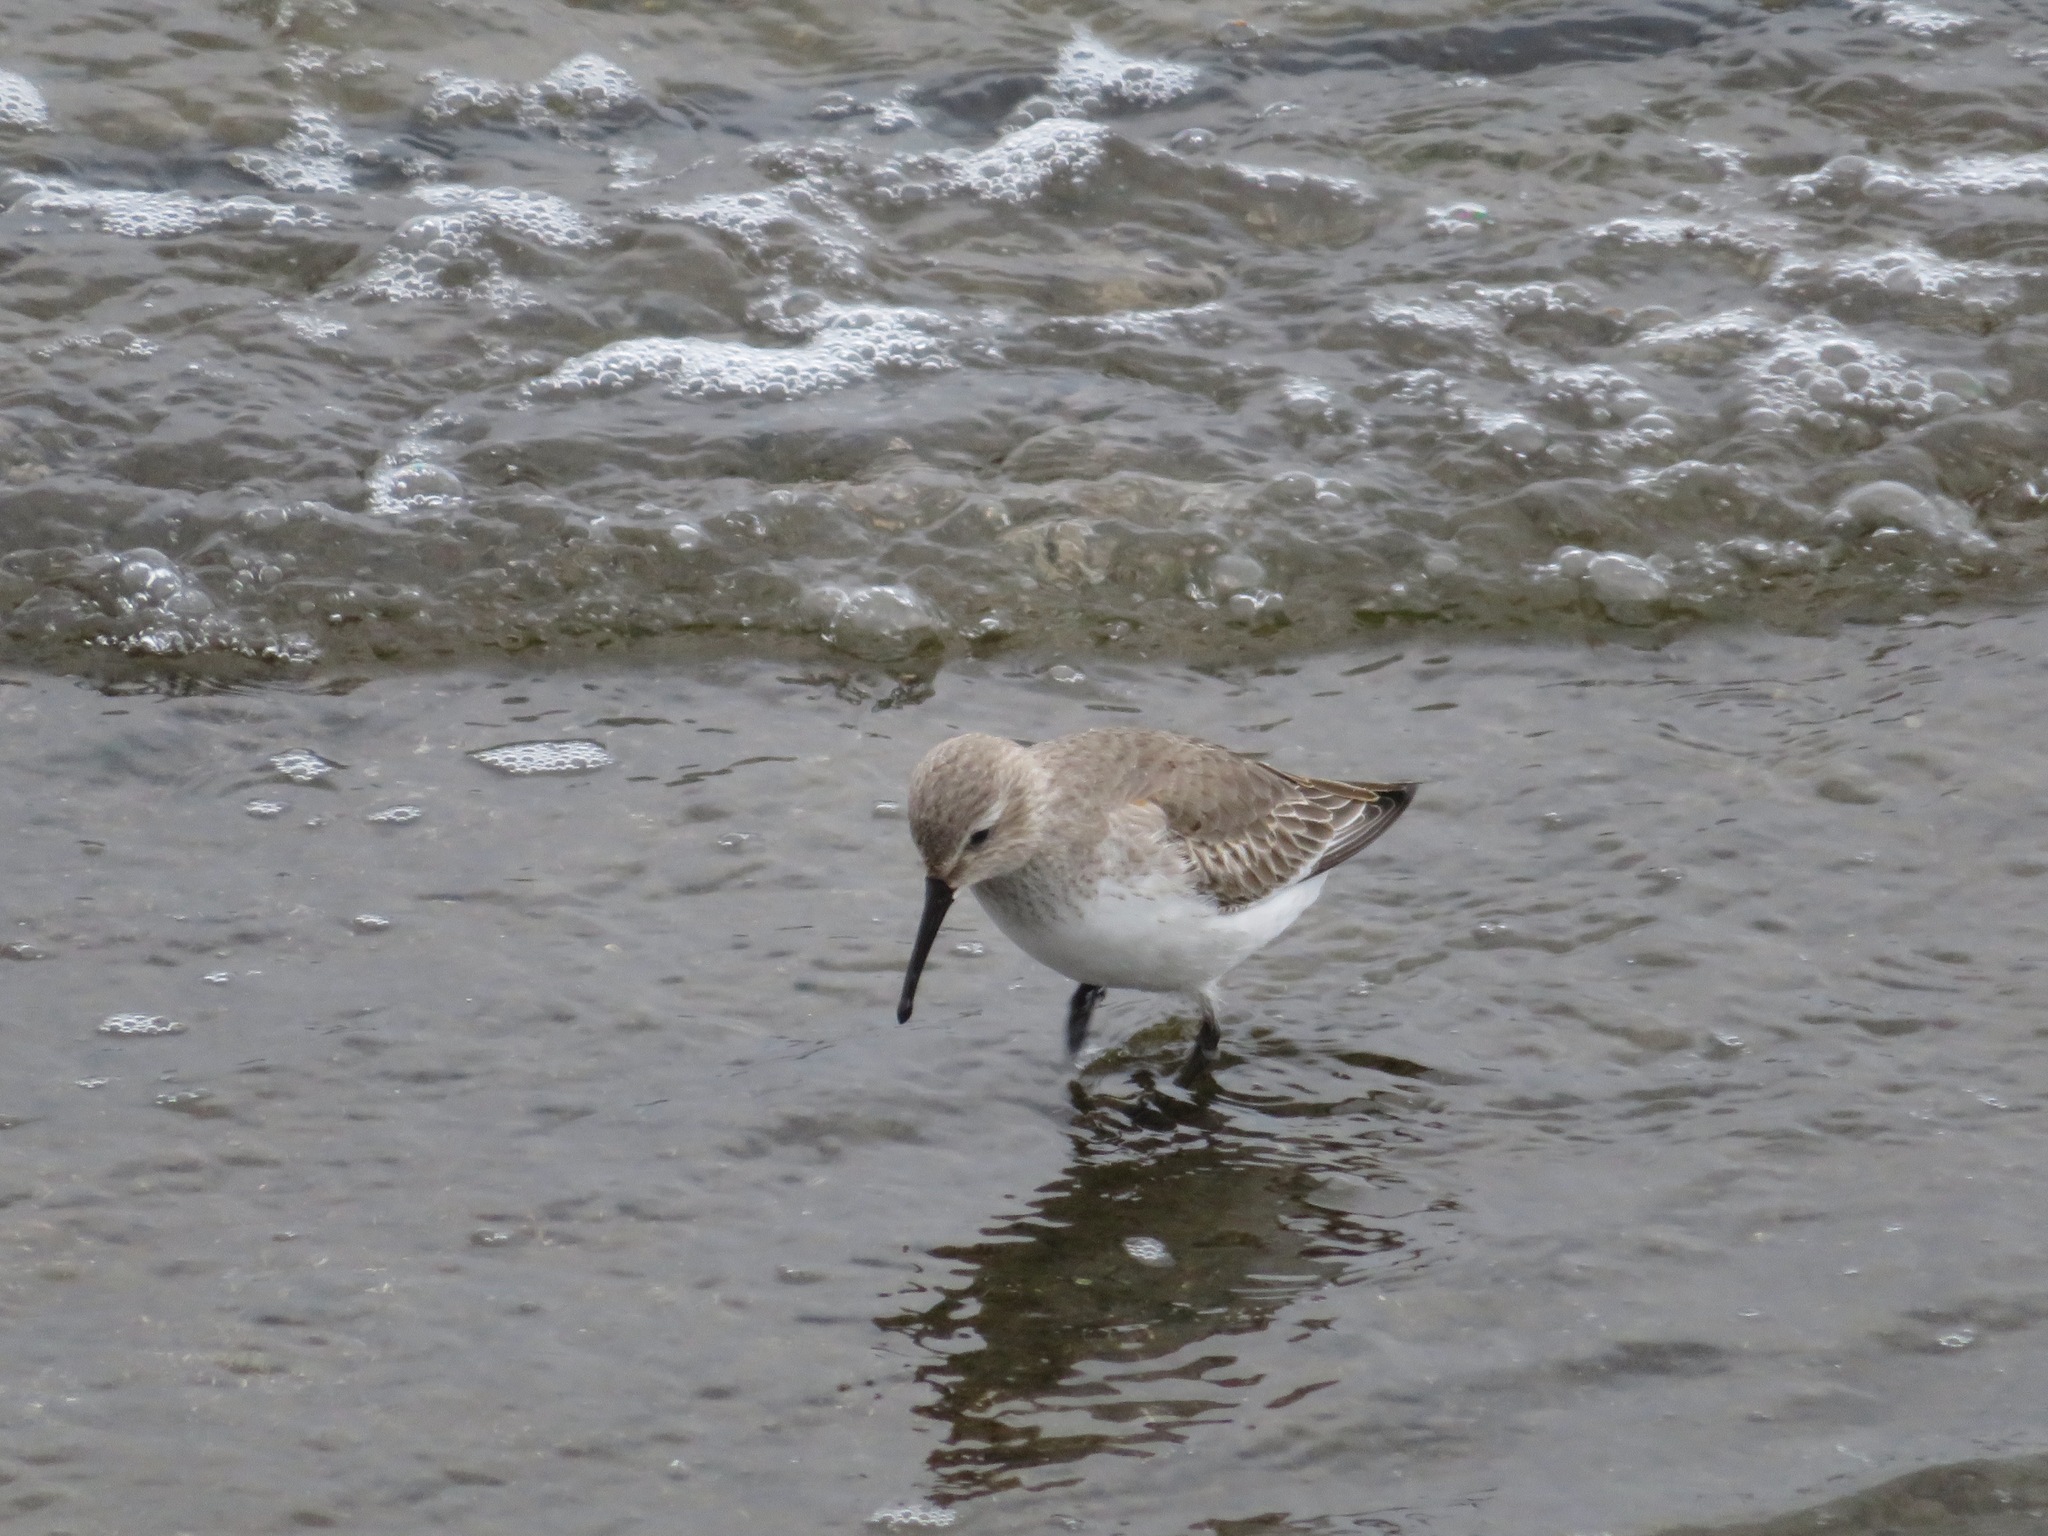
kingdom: Animalia
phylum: Chordata
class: Aves
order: Charadriiformes
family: Scolopacidae
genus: Calidris
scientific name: Calidris alpina
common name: Dunlin
